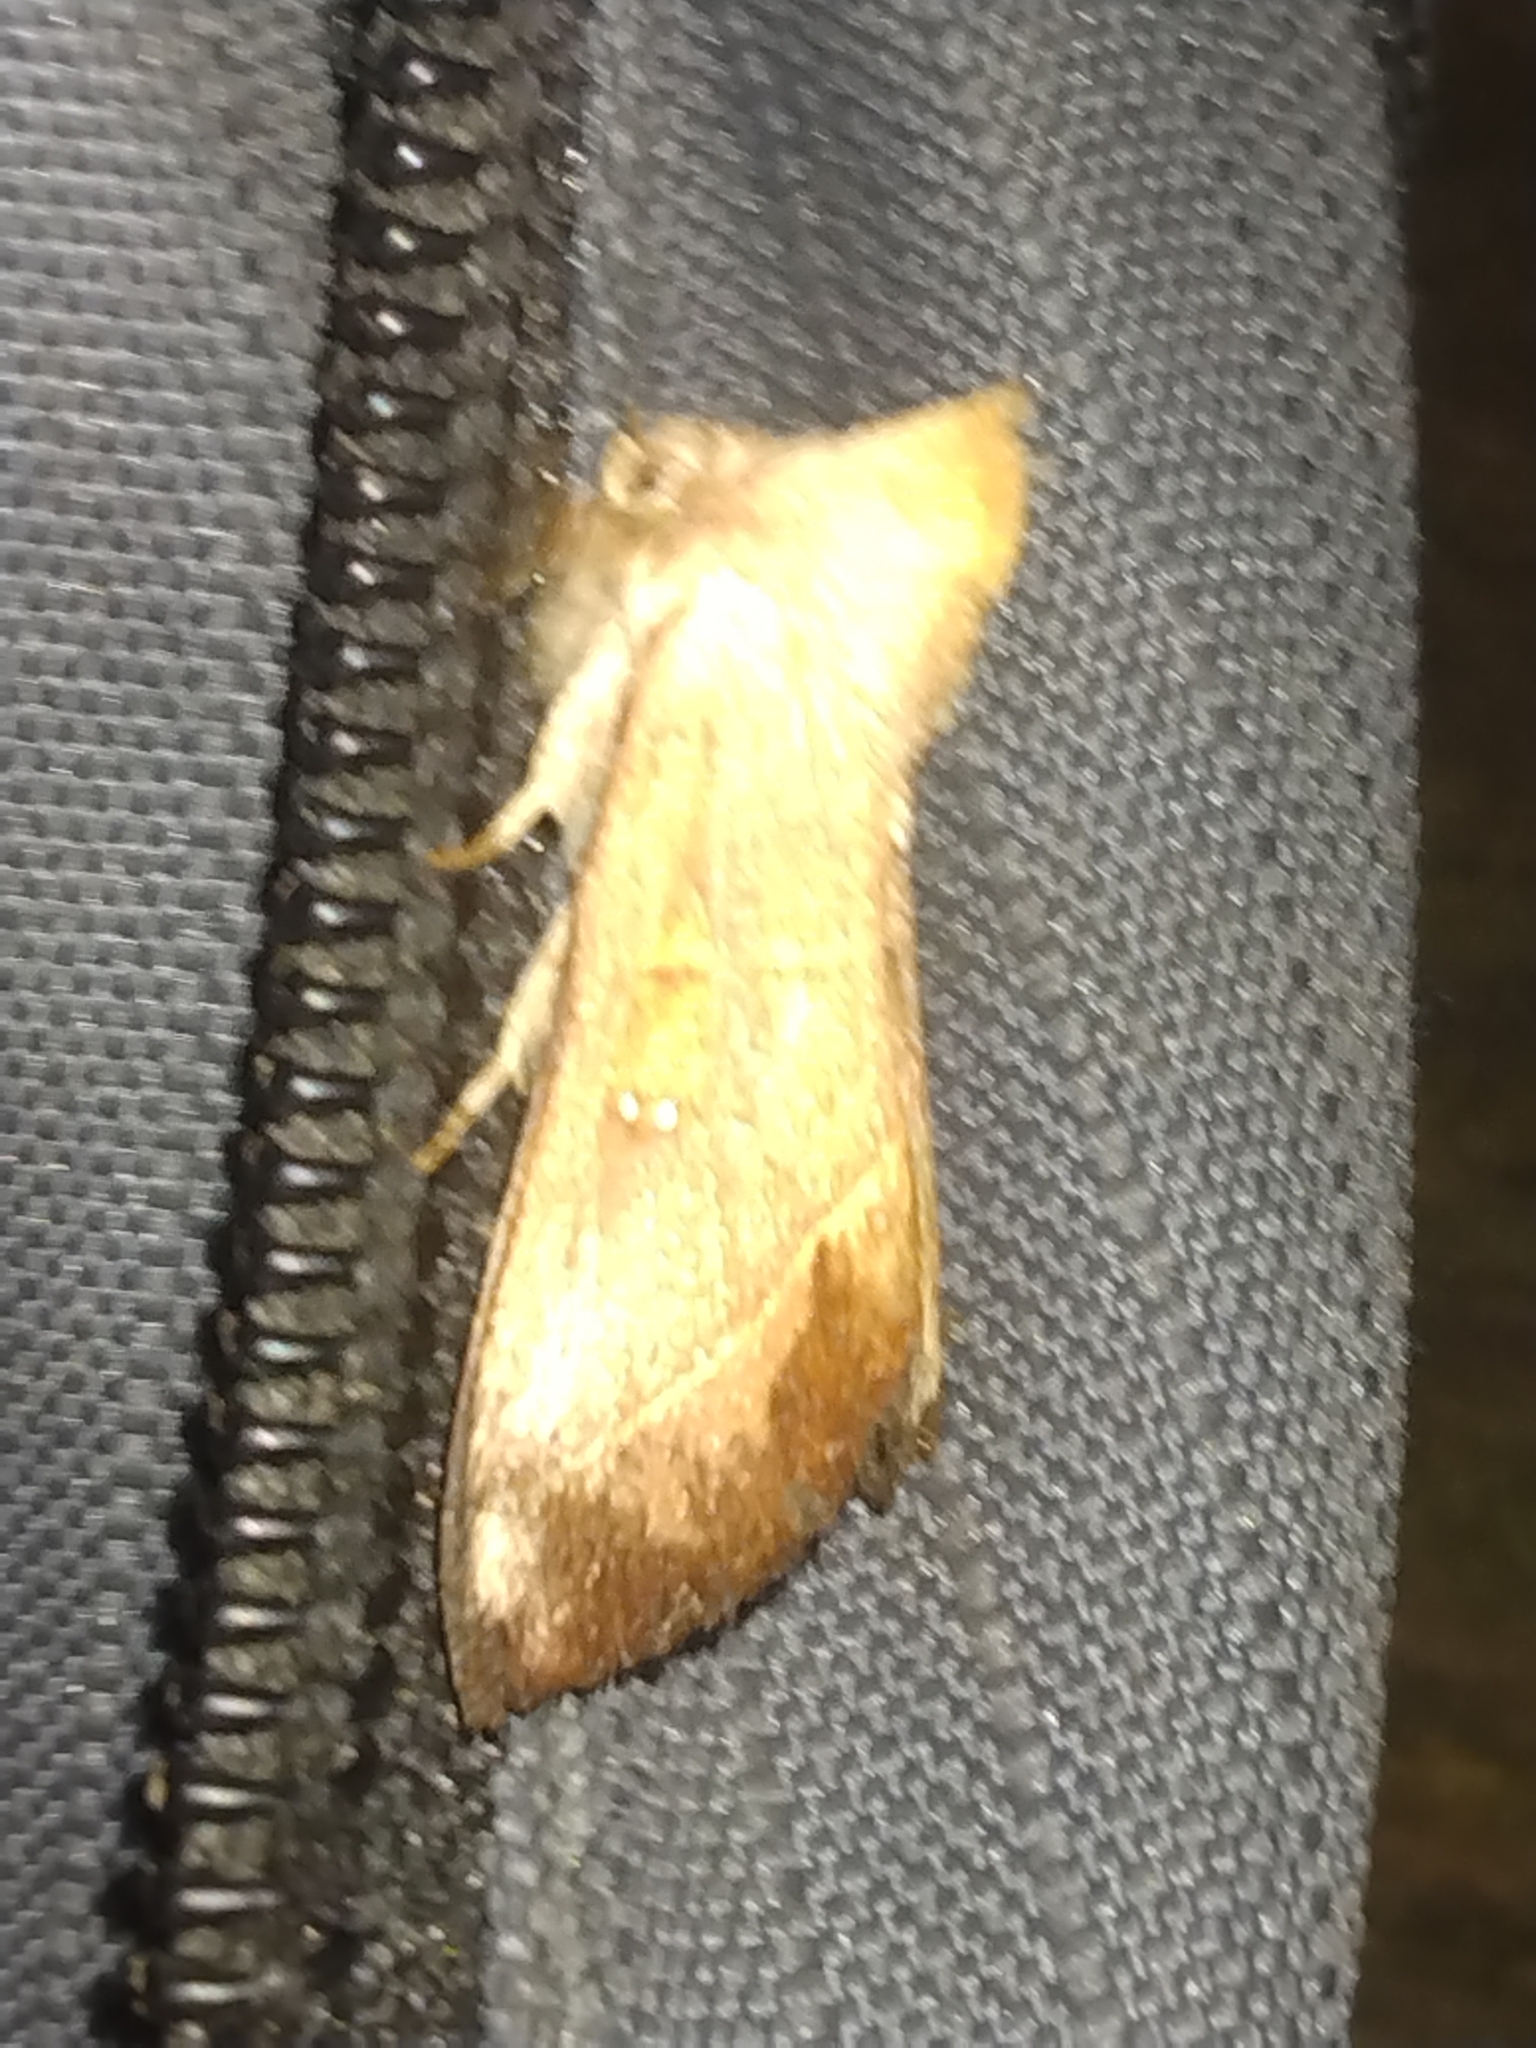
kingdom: Animalia
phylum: Arthropoda
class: Insecta
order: Lepidoptera
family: Notodontidae
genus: Nadata
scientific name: Nadata gibbosa
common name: White-dotted prominent
